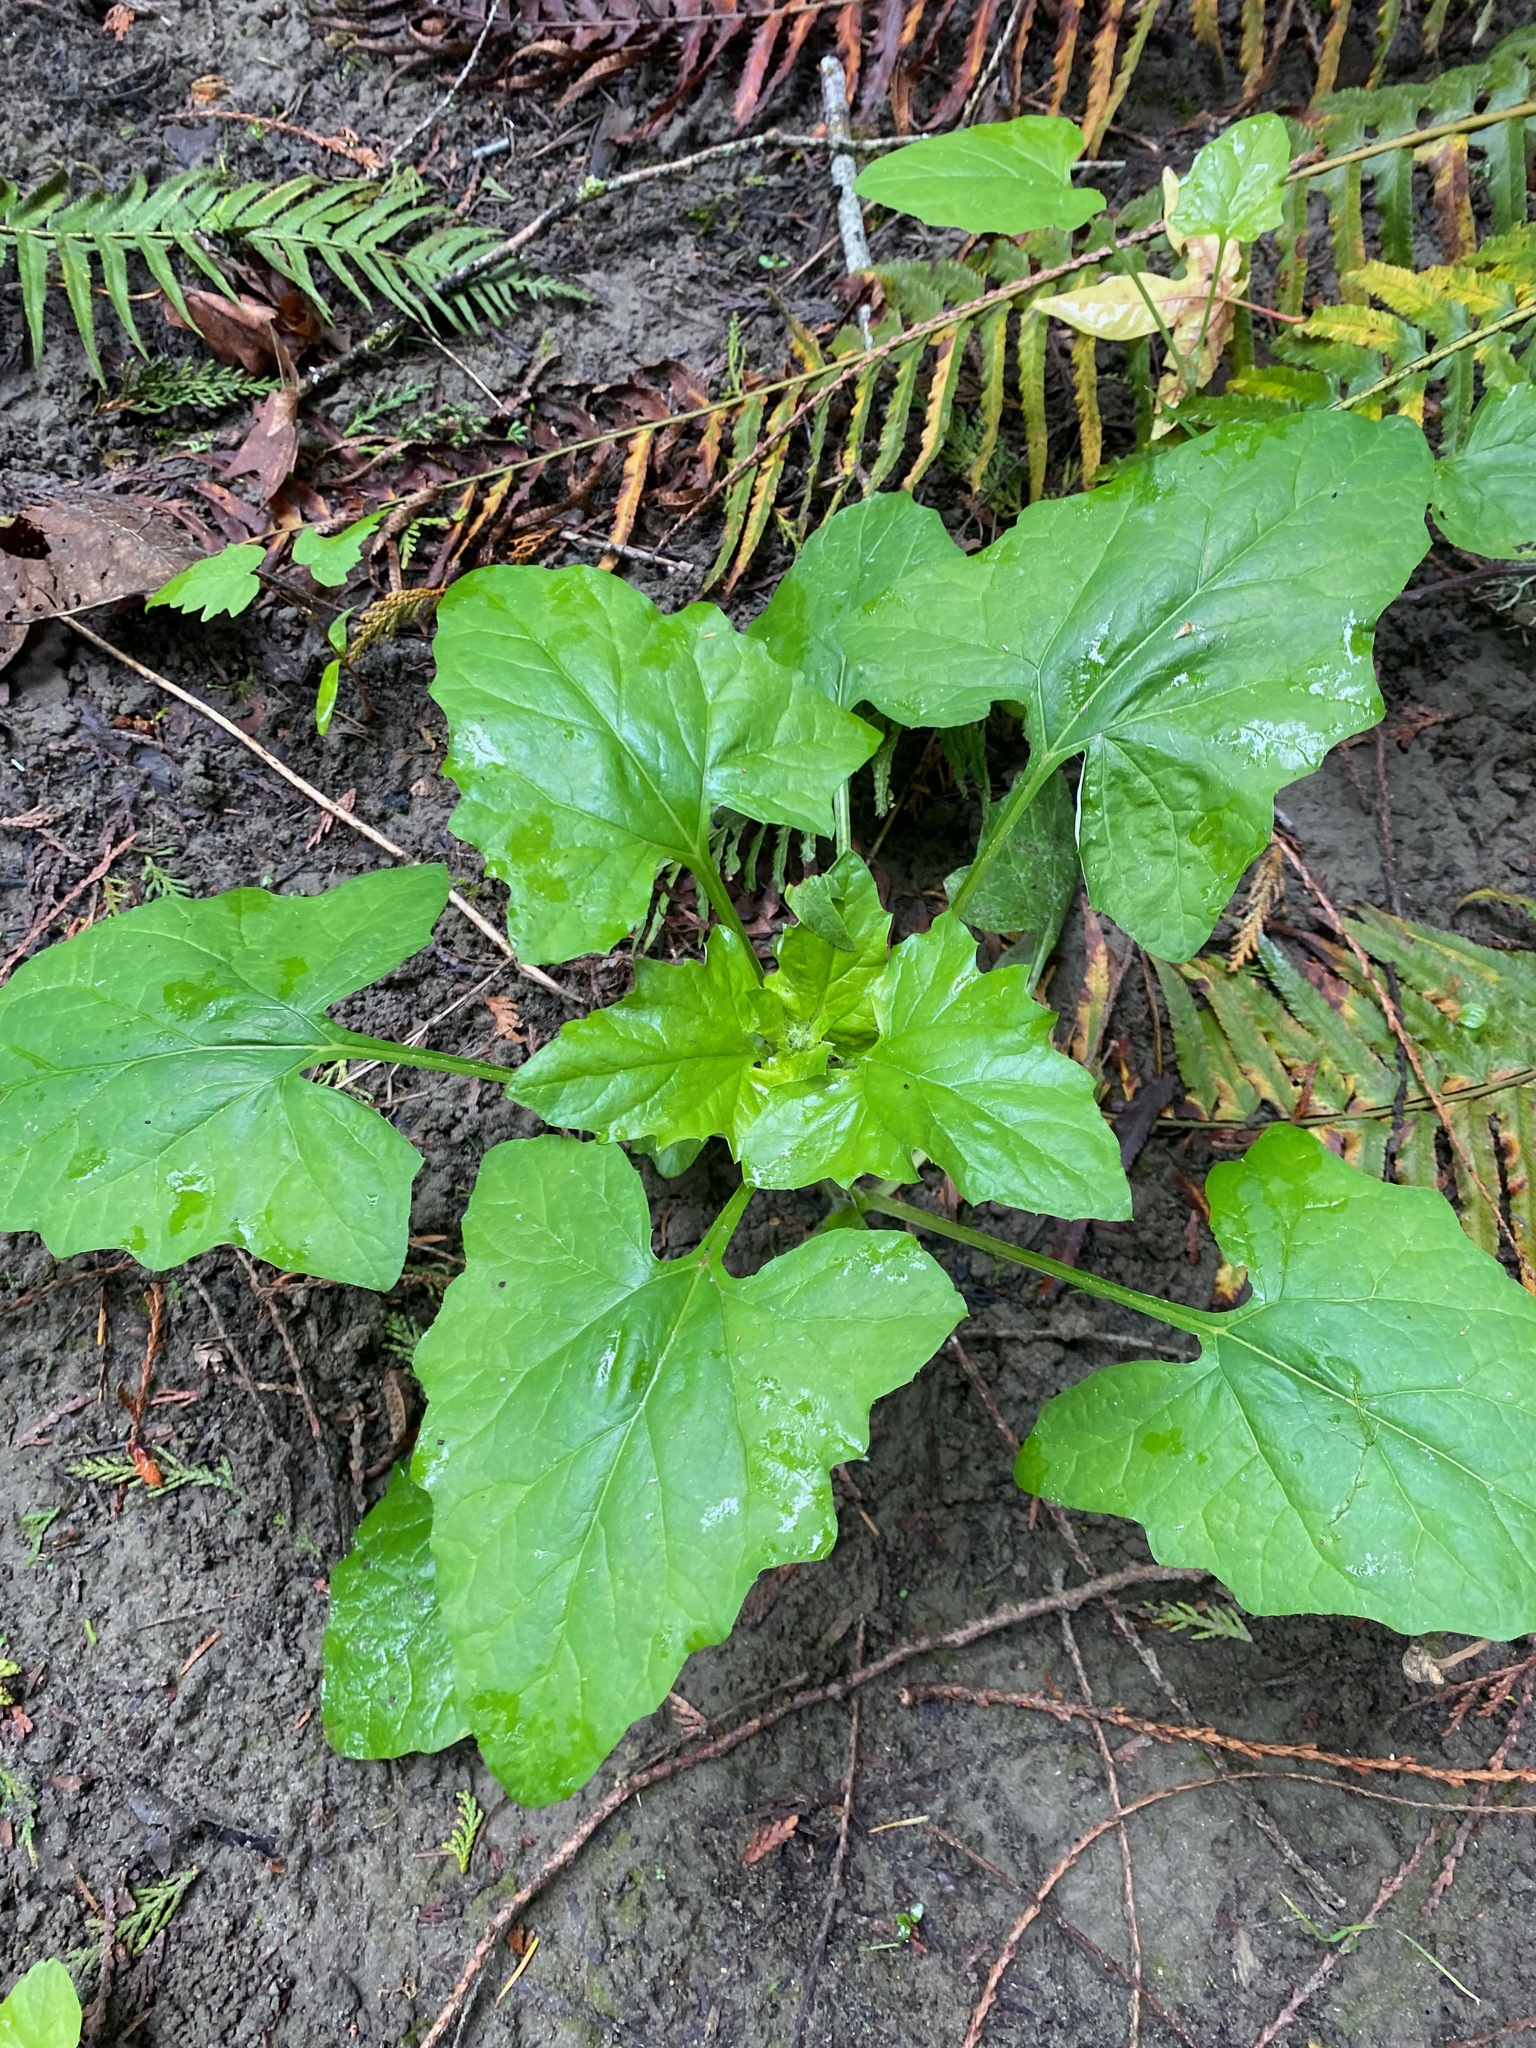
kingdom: Plantae
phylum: Tracheophyta
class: Magnoliopsida
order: Asterales
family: Asteraceae
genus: Adenocaulon
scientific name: Adenocaulon bicolor
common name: Trailplant
